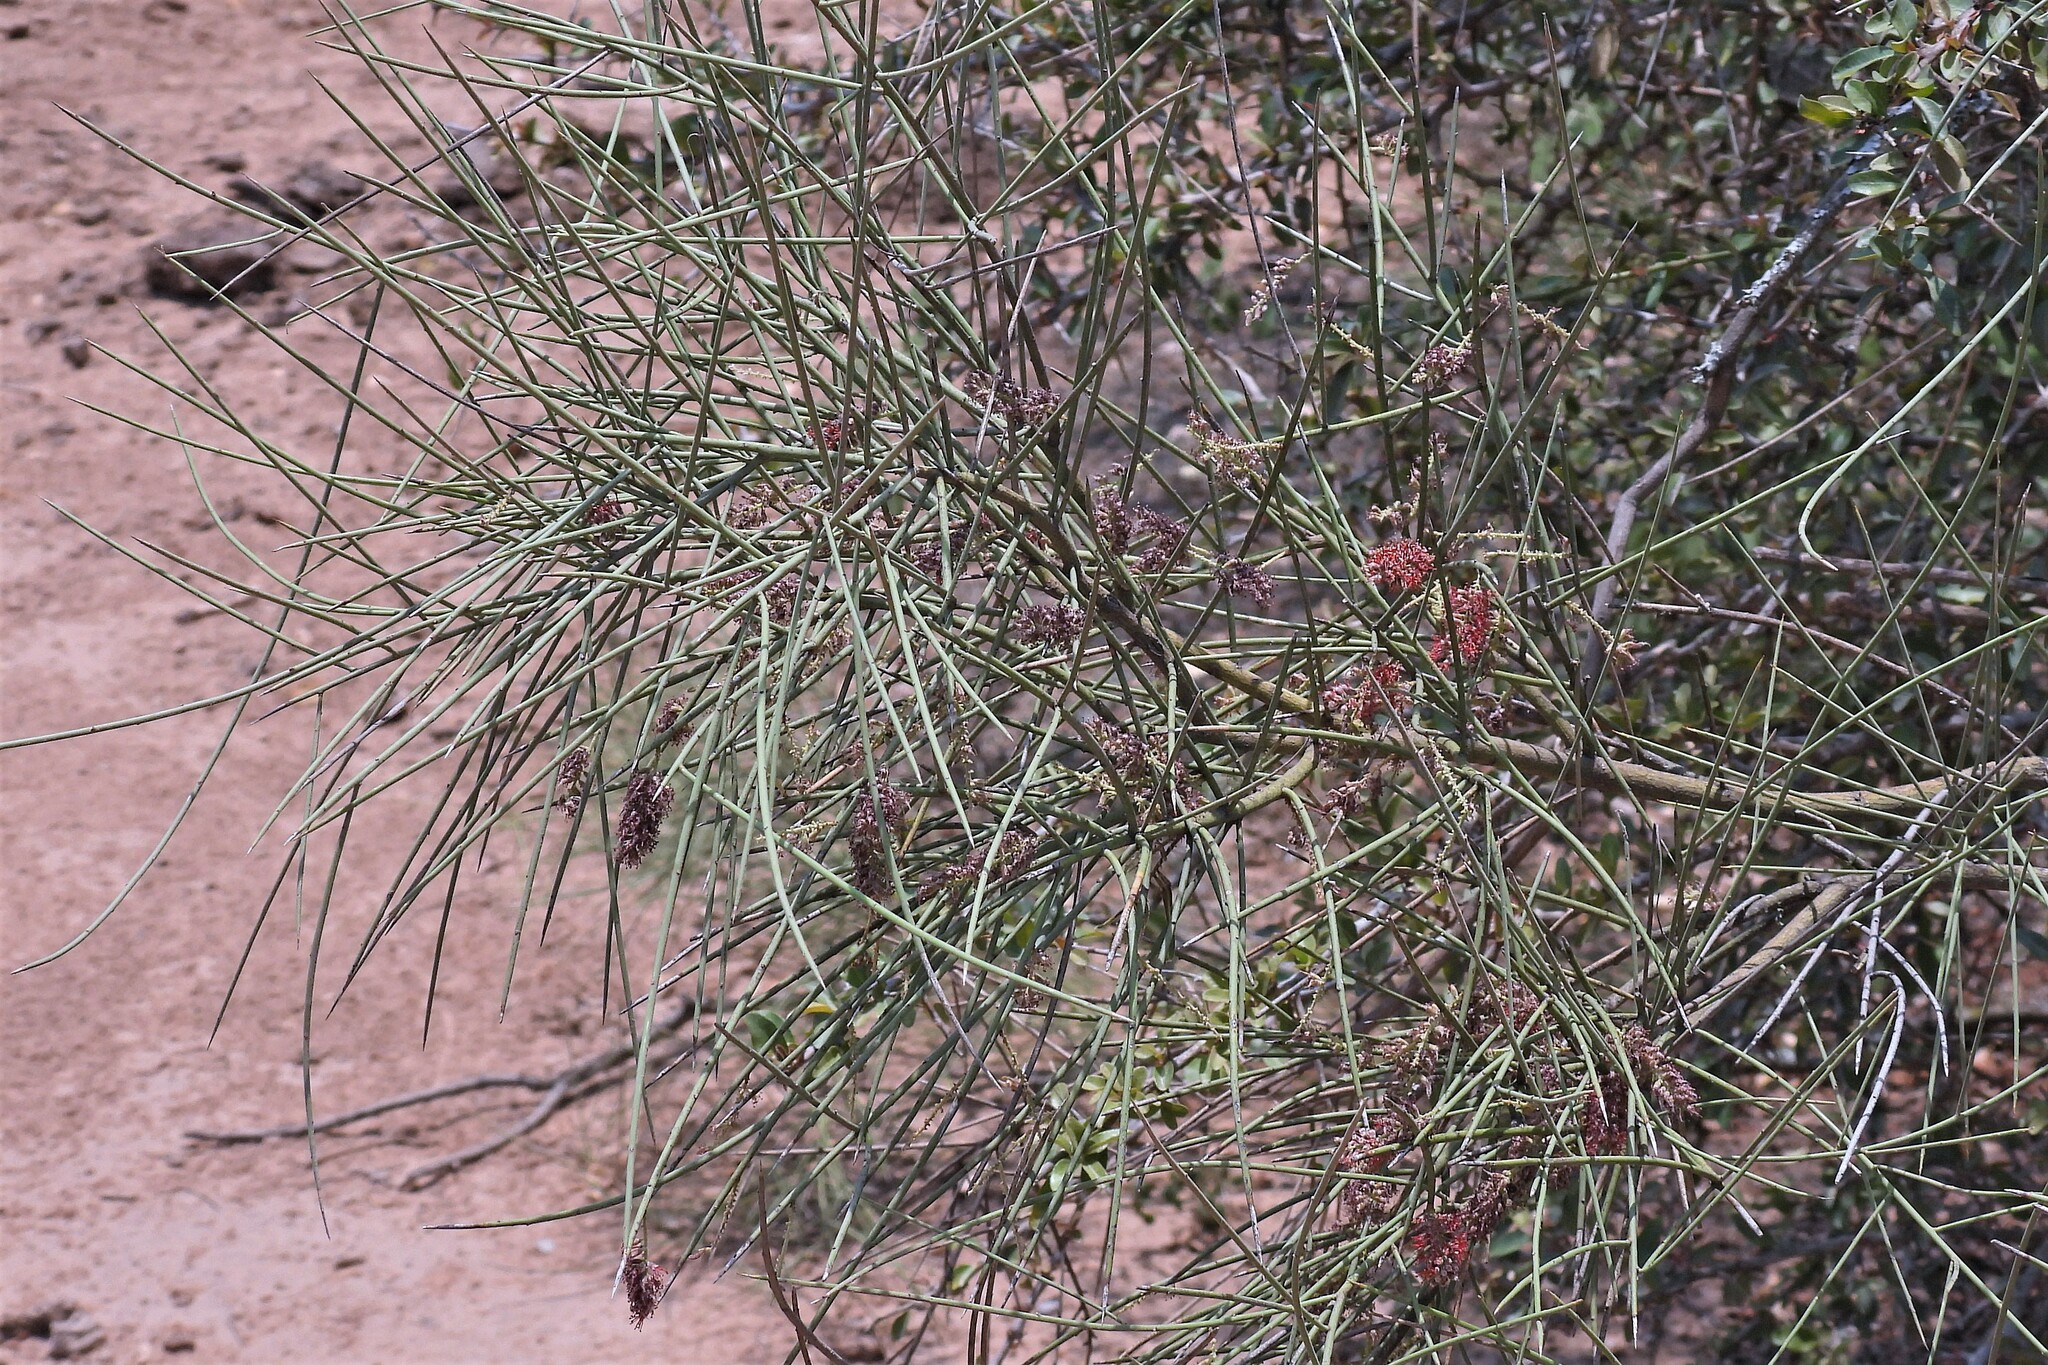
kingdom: Plantae
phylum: Tracheophyta
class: Magnoliopsida
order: Fabales
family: Fabaceae
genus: Prosopis
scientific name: Prosopis sericantha
